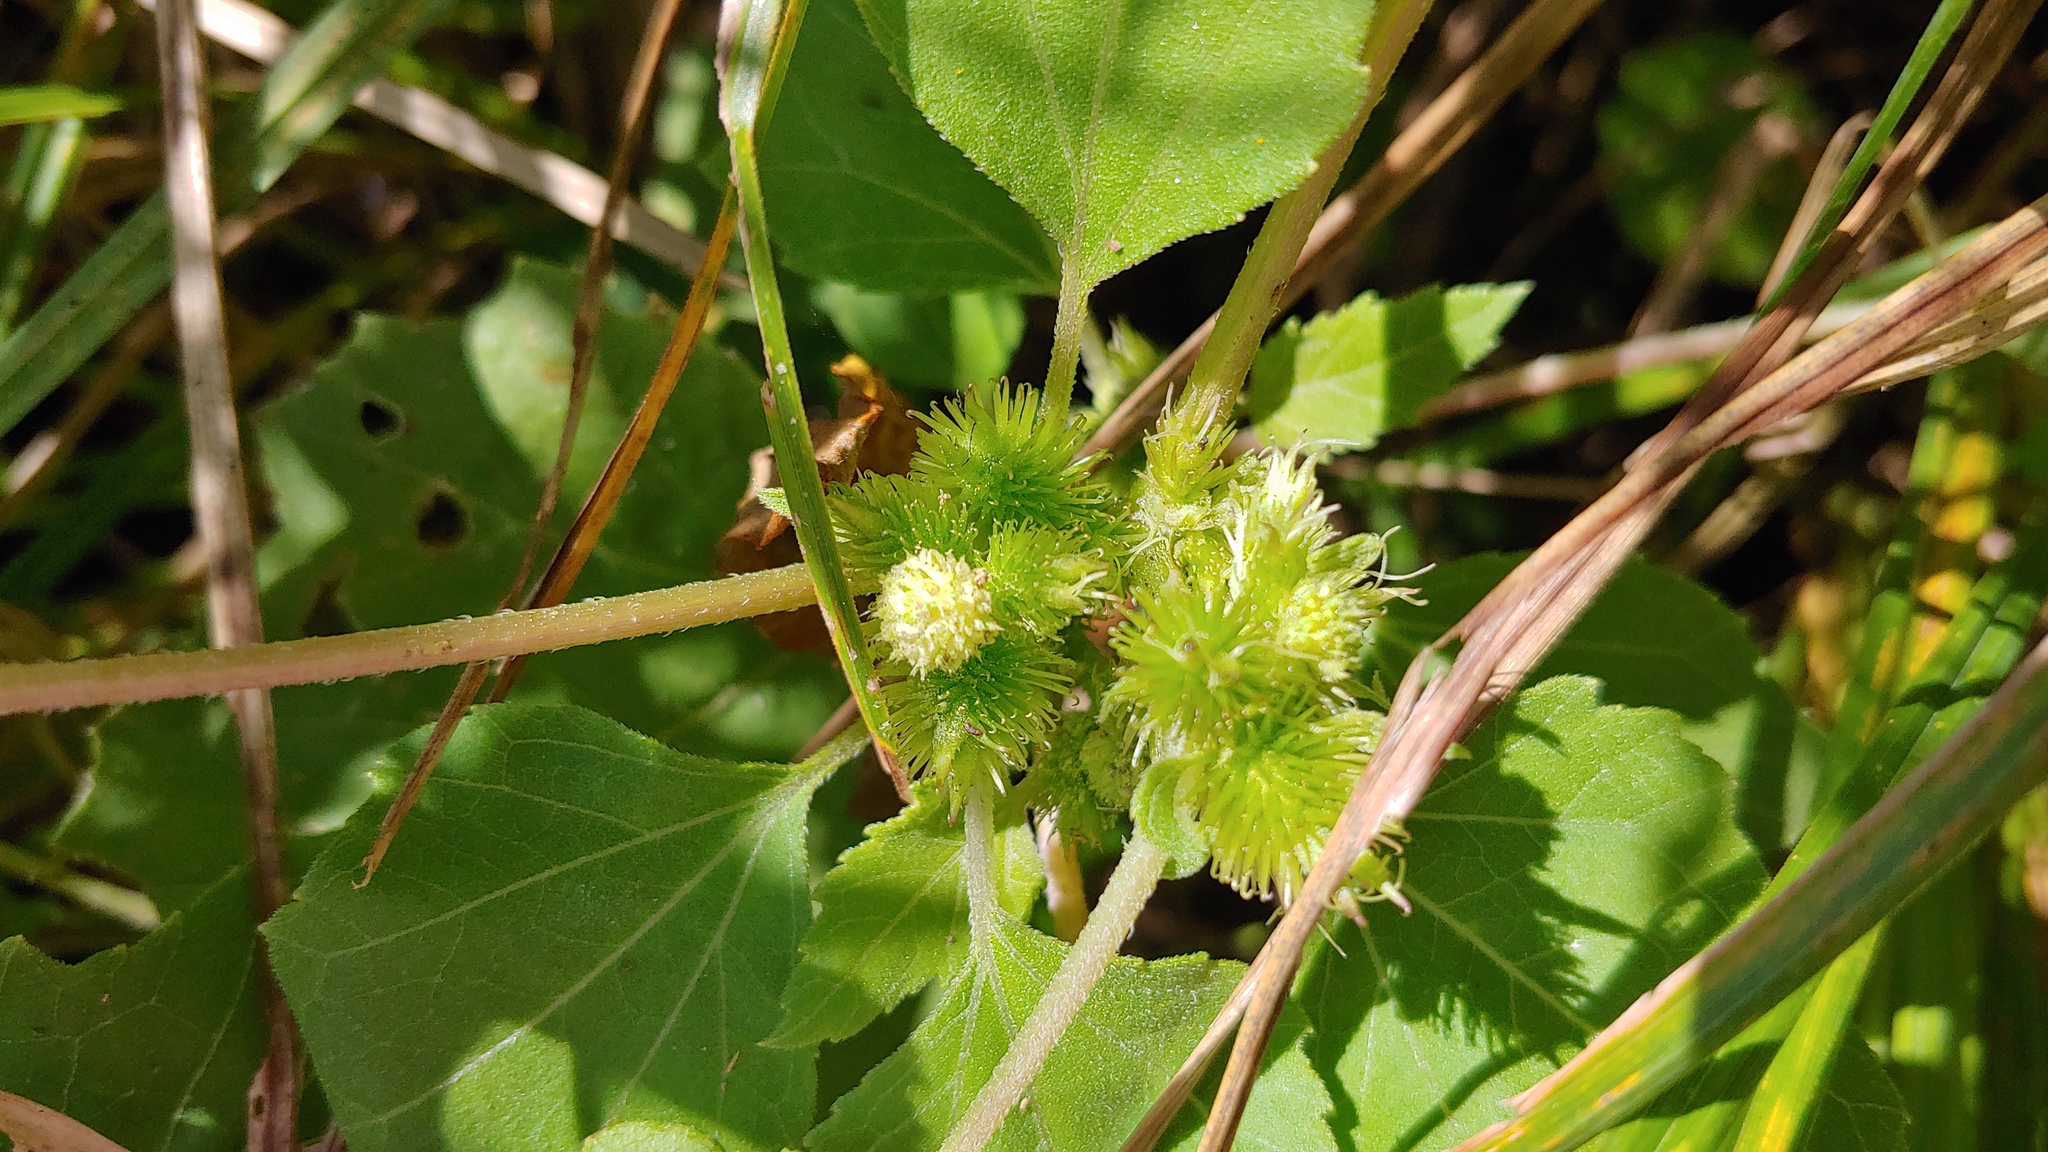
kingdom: Plantae
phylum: Tracheophyta
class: Magnoliopsida
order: Asterales
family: Asteraceae
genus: Xanthium
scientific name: Xanthium strumarium
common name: Rough cocklebur
